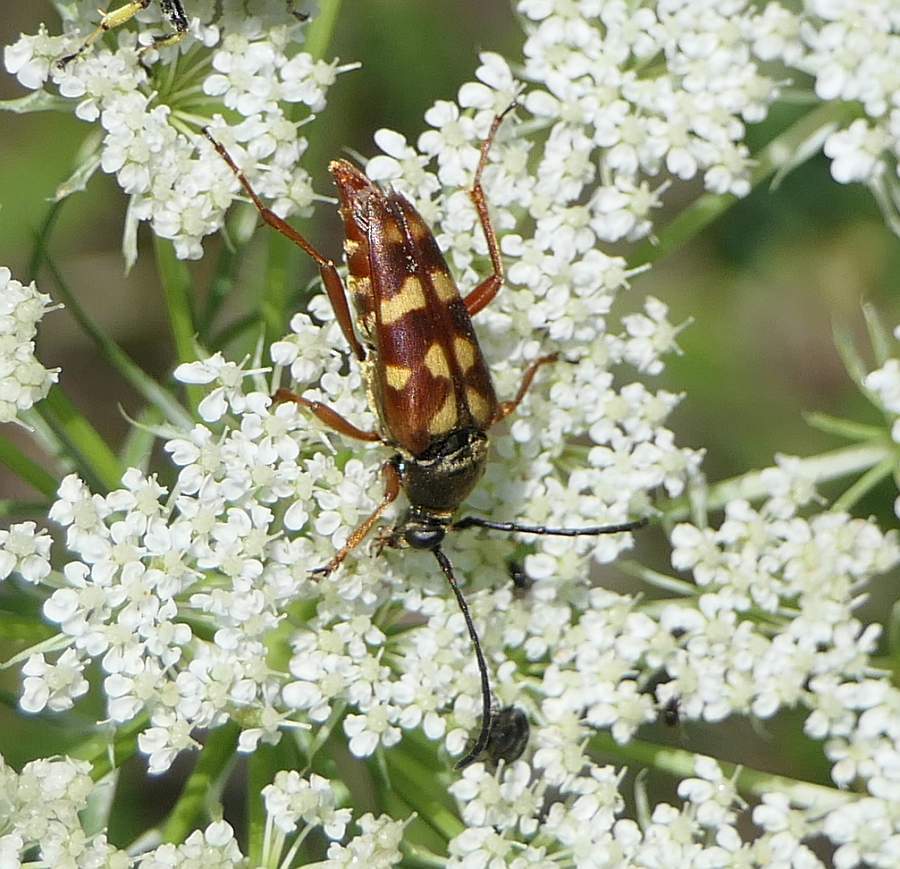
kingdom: Animalia
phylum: Arthropoda
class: Insecta
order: Coleoptera
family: Cerambycidae
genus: Typocerus
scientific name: Typocerus velutinus
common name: Banded longhorn beetle
